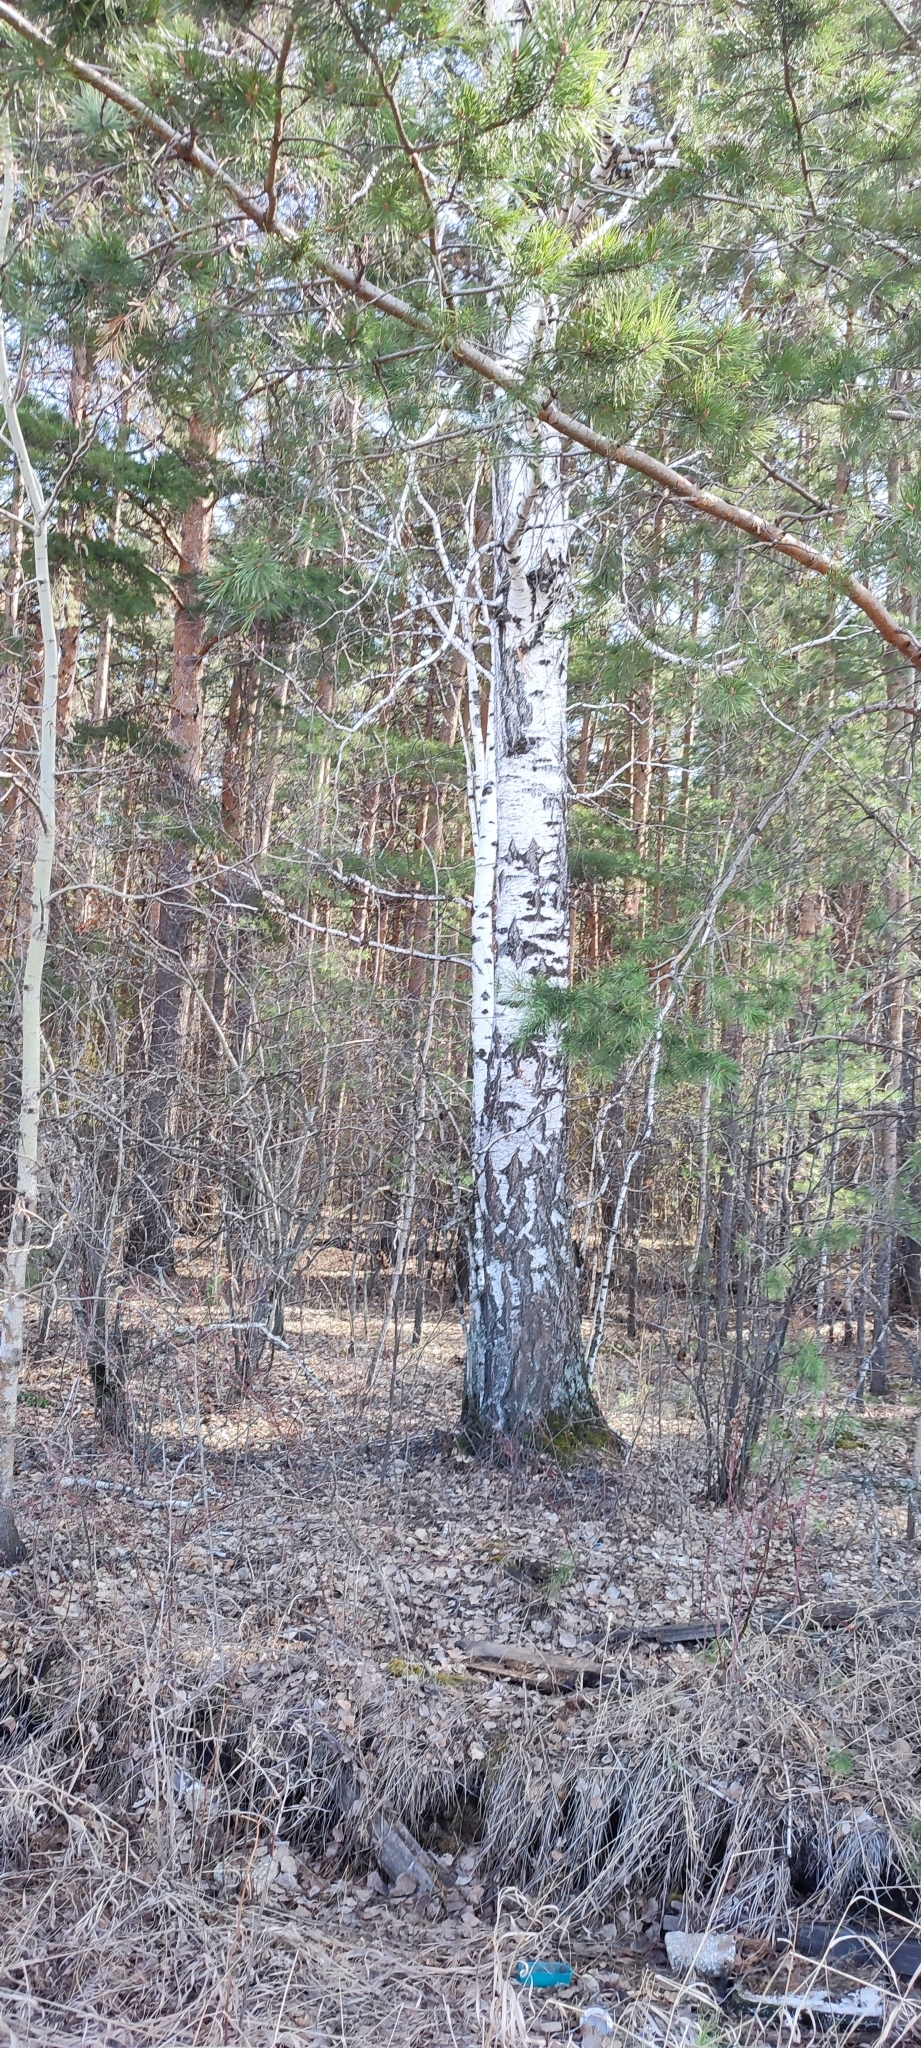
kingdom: Plantae
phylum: Tracheophyta
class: Magnoliopsida
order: Fagales
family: Betulaceae
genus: Betula
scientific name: Betula pendula
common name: Silver birch
